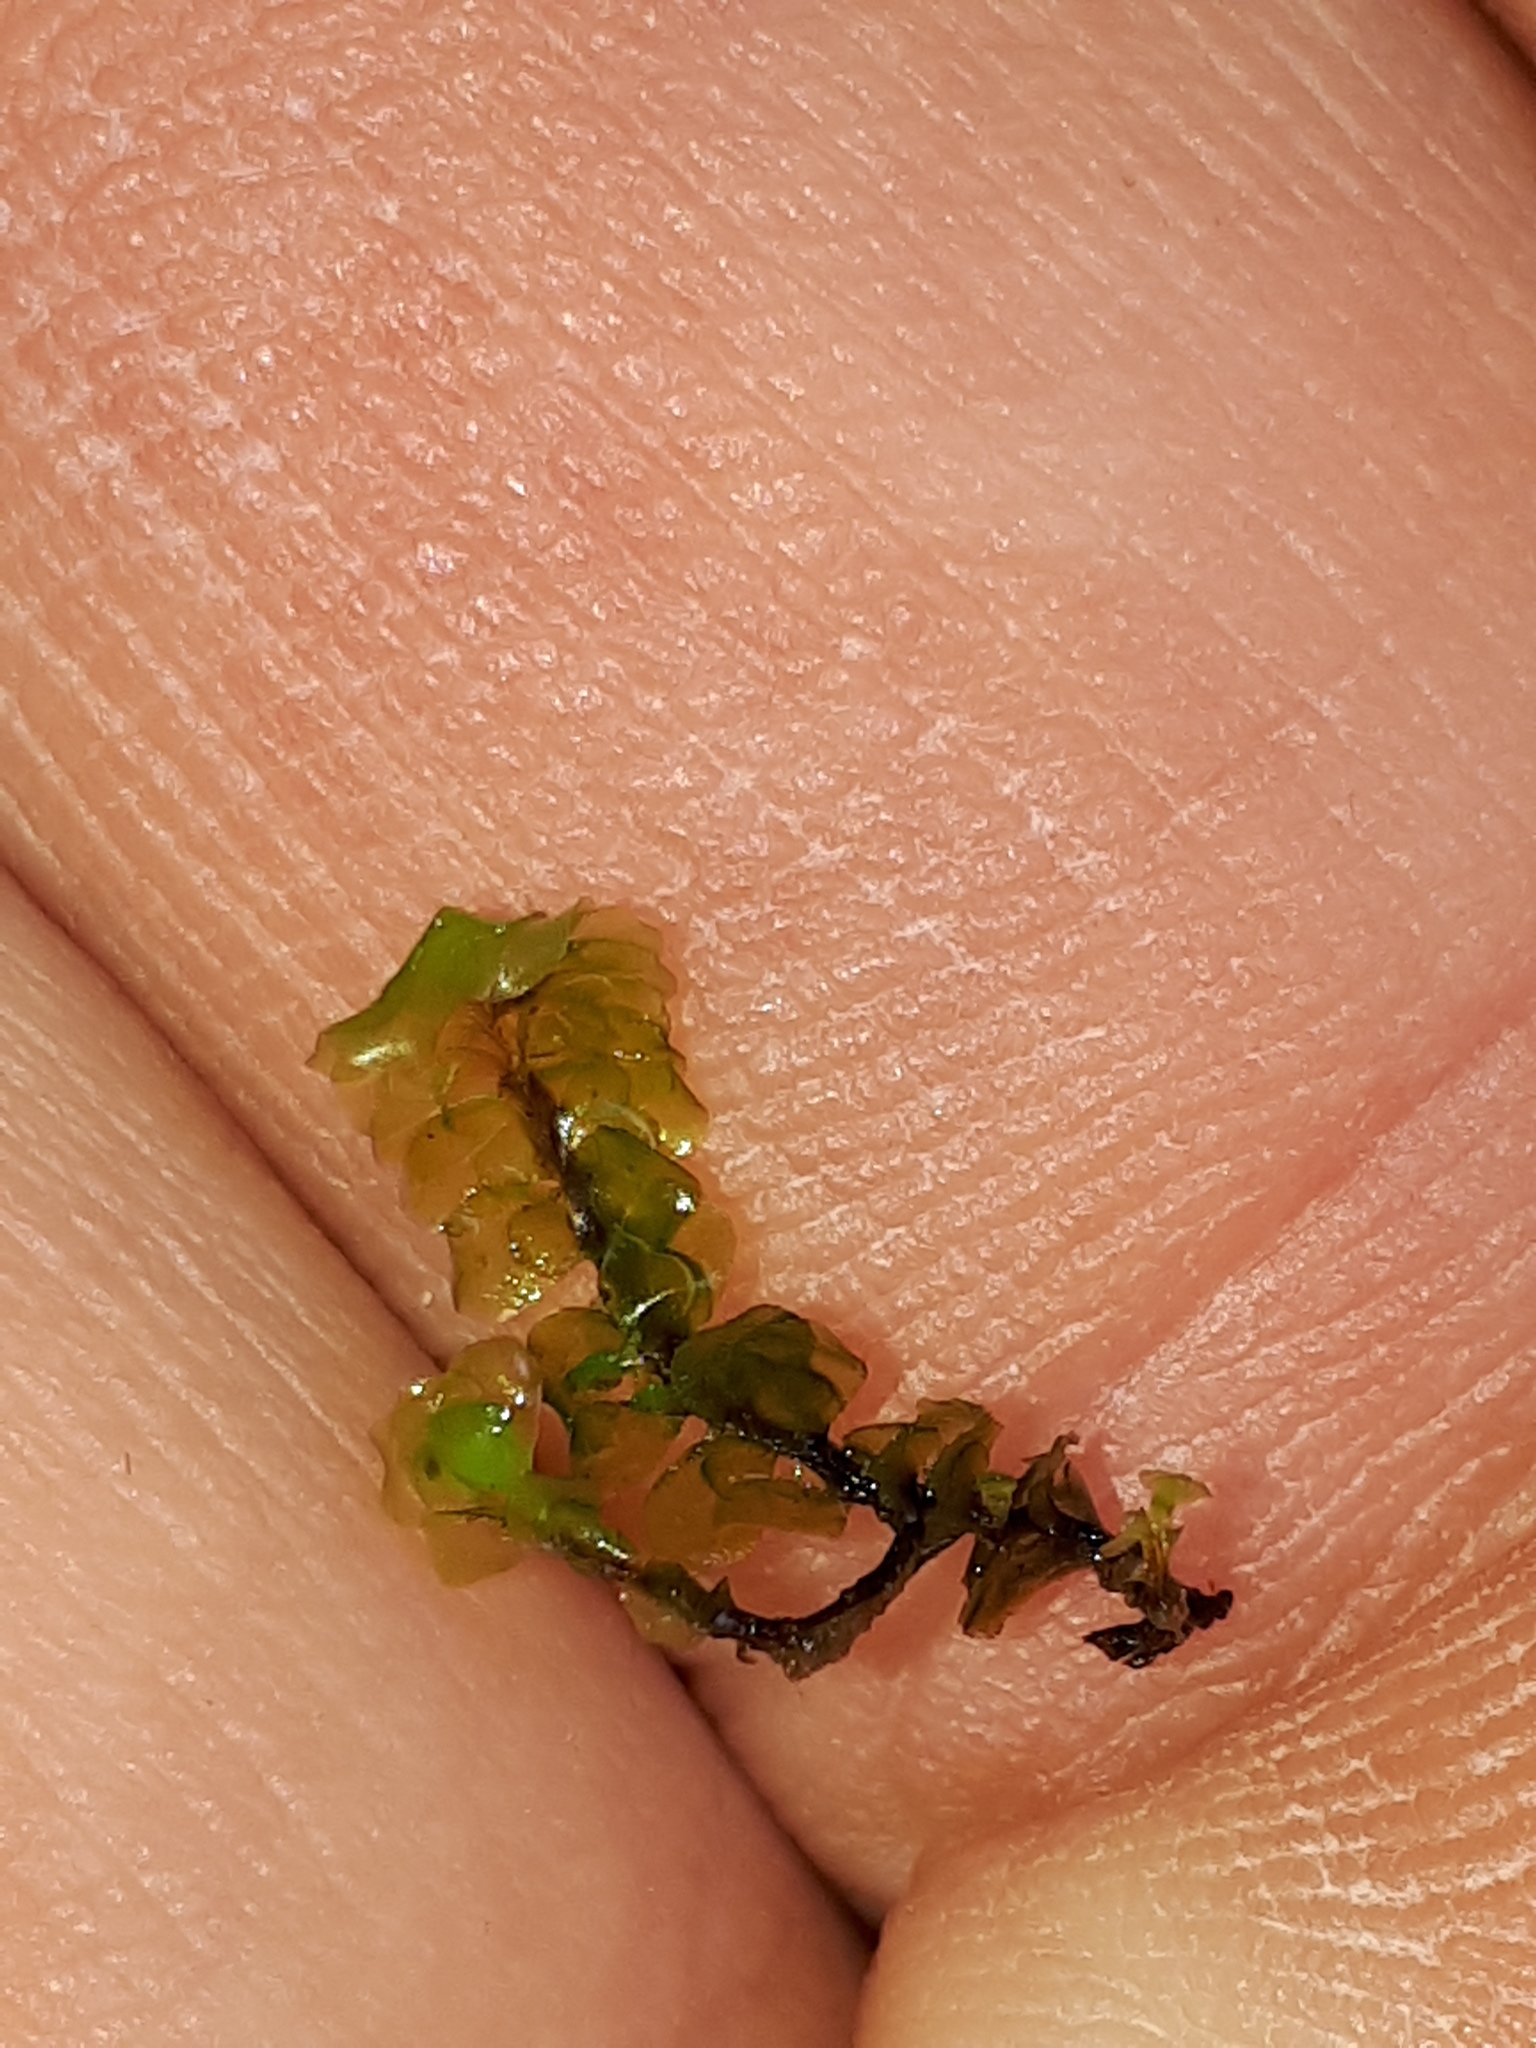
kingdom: Plantae
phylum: Marchantiophyta
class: Jungermanniopsida
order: Jungermanniales
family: Scapaniaceae
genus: Scapania
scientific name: Scapania undulata
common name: Water earwort
